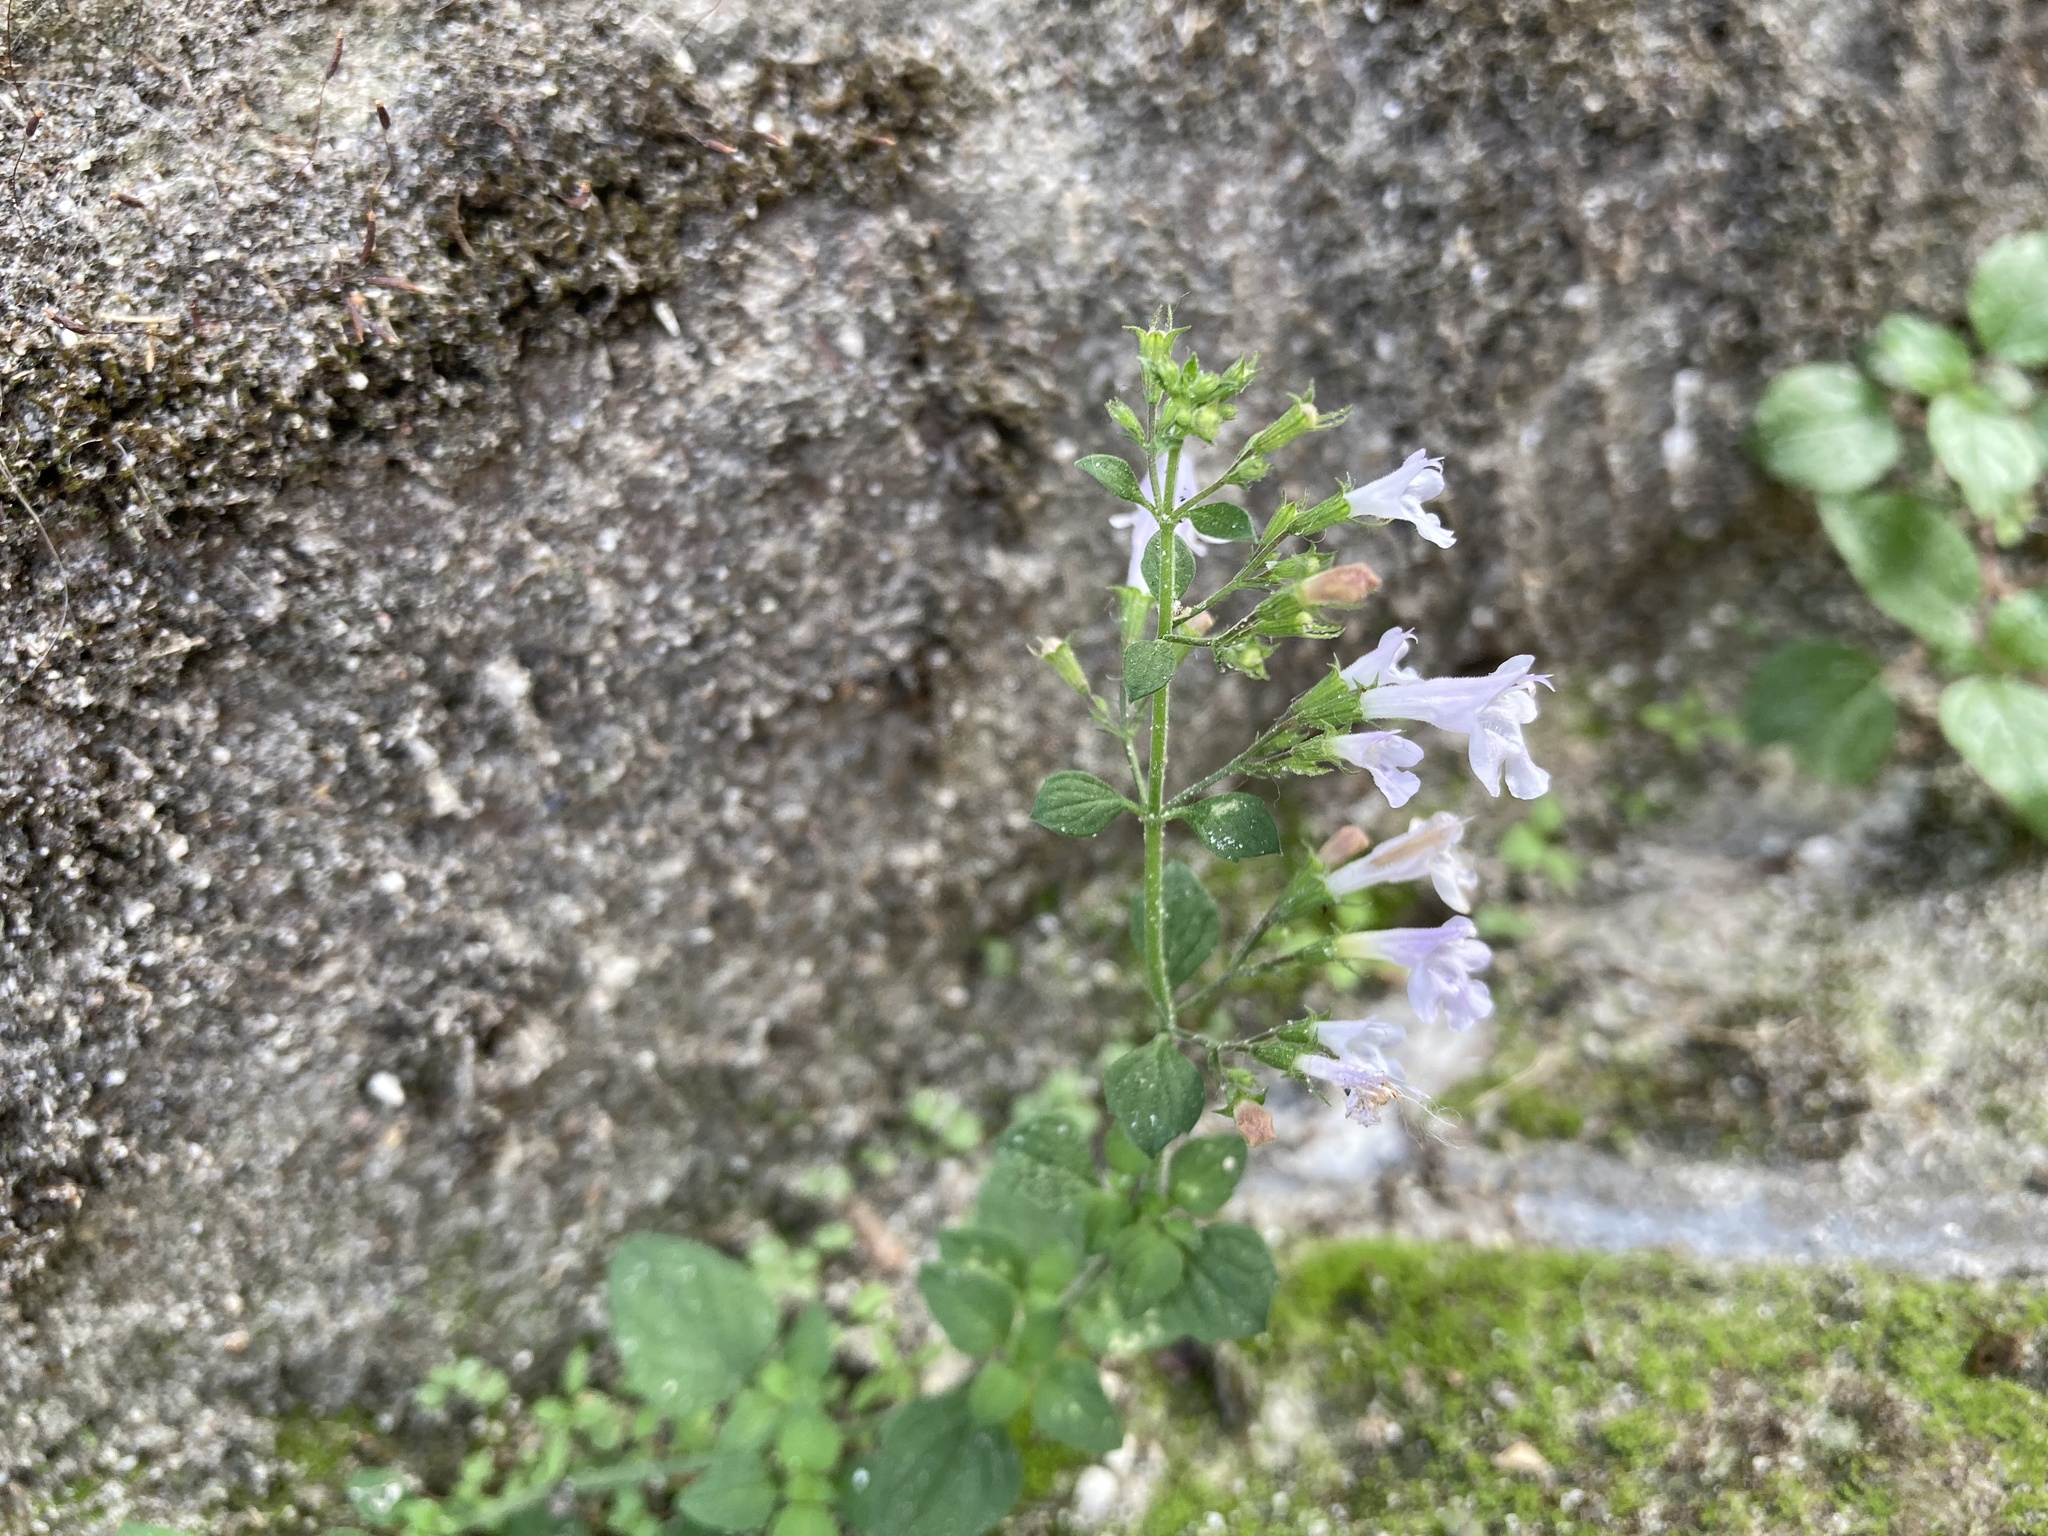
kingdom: Plantae
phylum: Tracheophyta
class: Magnoliopsida
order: Lamiales
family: Lamiaceae
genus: Clinopodium
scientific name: Clinopodium nepeta
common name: Lesser calamint
